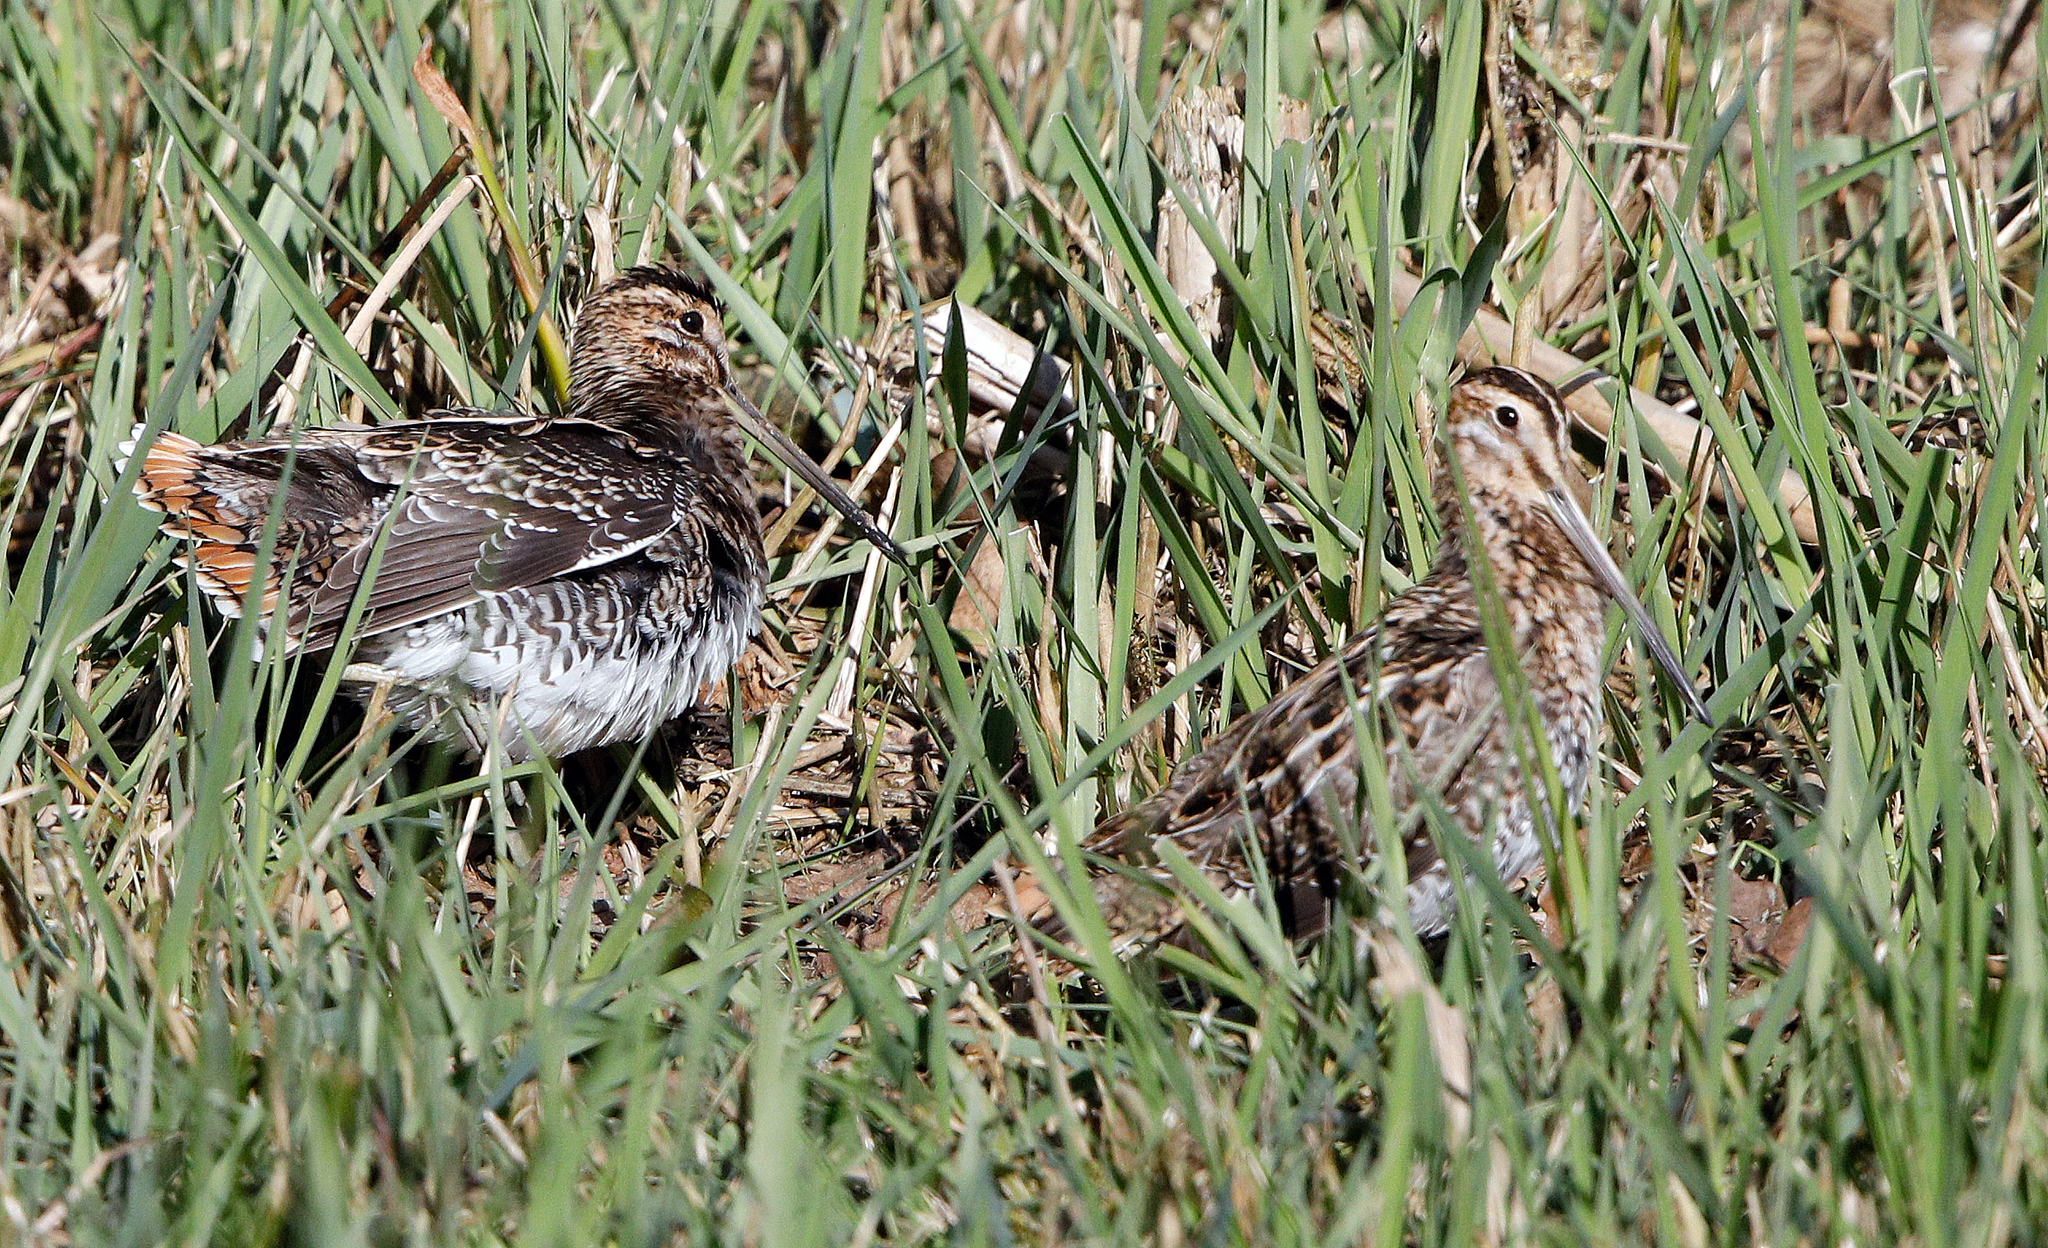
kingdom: Animalia
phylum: Chordata
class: Aves
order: Charadriiformes
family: Scolopacidae
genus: Gallinago
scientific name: Gallinago gallinago
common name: Common snipe
